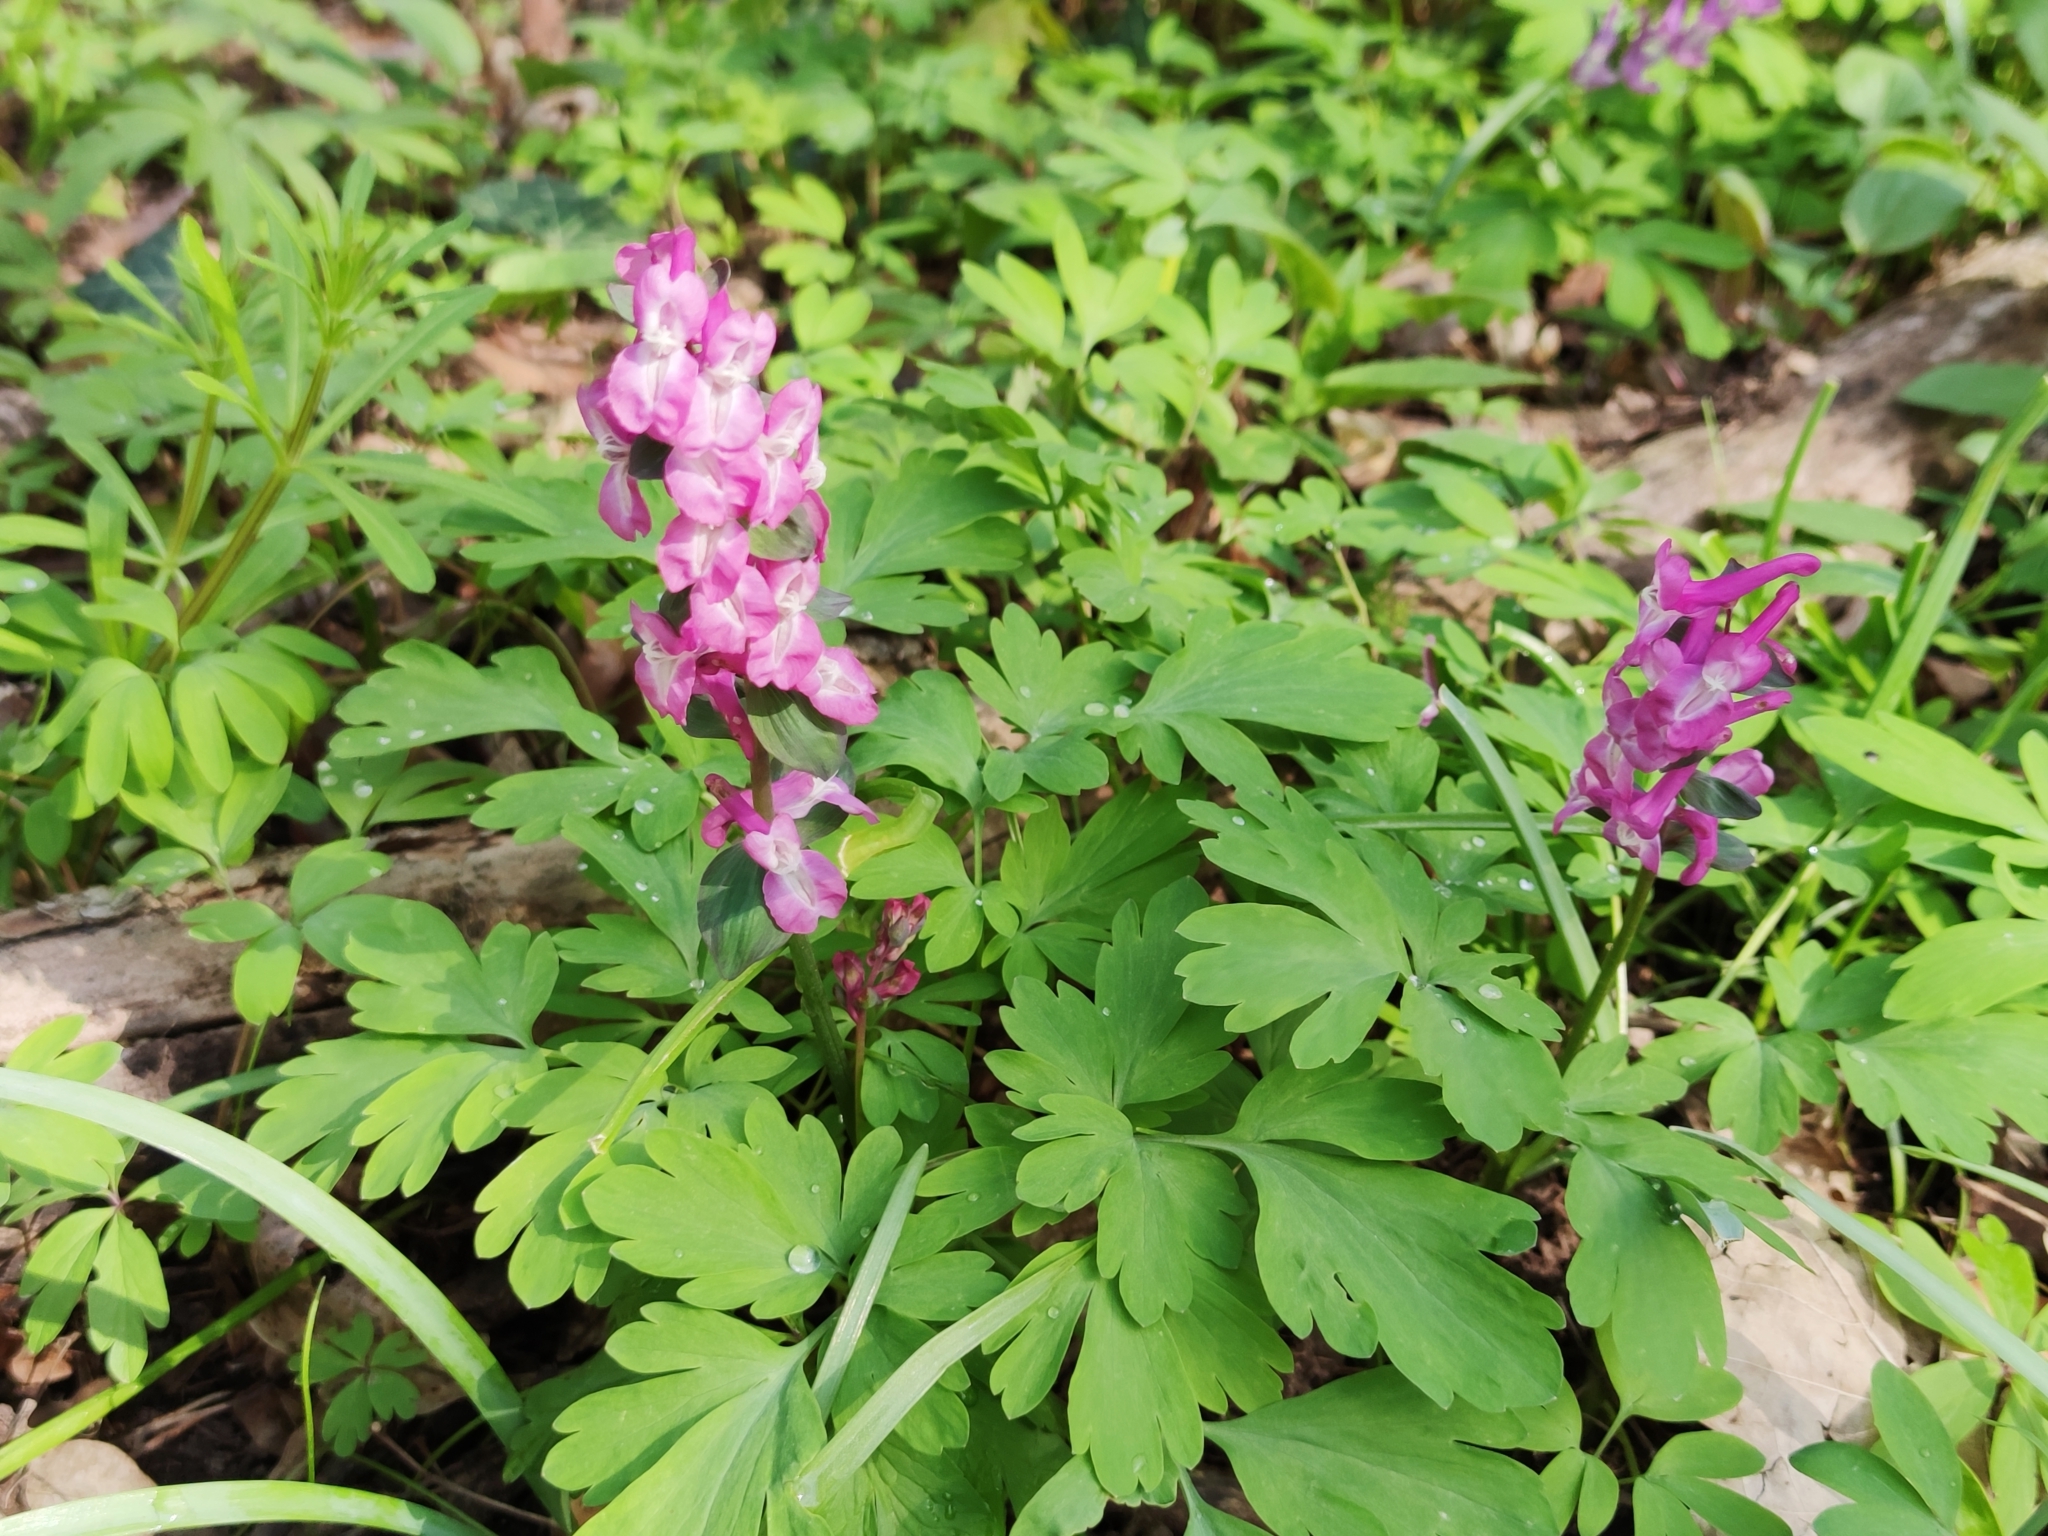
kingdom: Plantae
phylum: Tracheophyta
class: Magnoliopsida
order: Ranunculales
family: Papaveraceae
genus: Corydalis
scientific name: Corydalis cava
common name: Hollowroot
